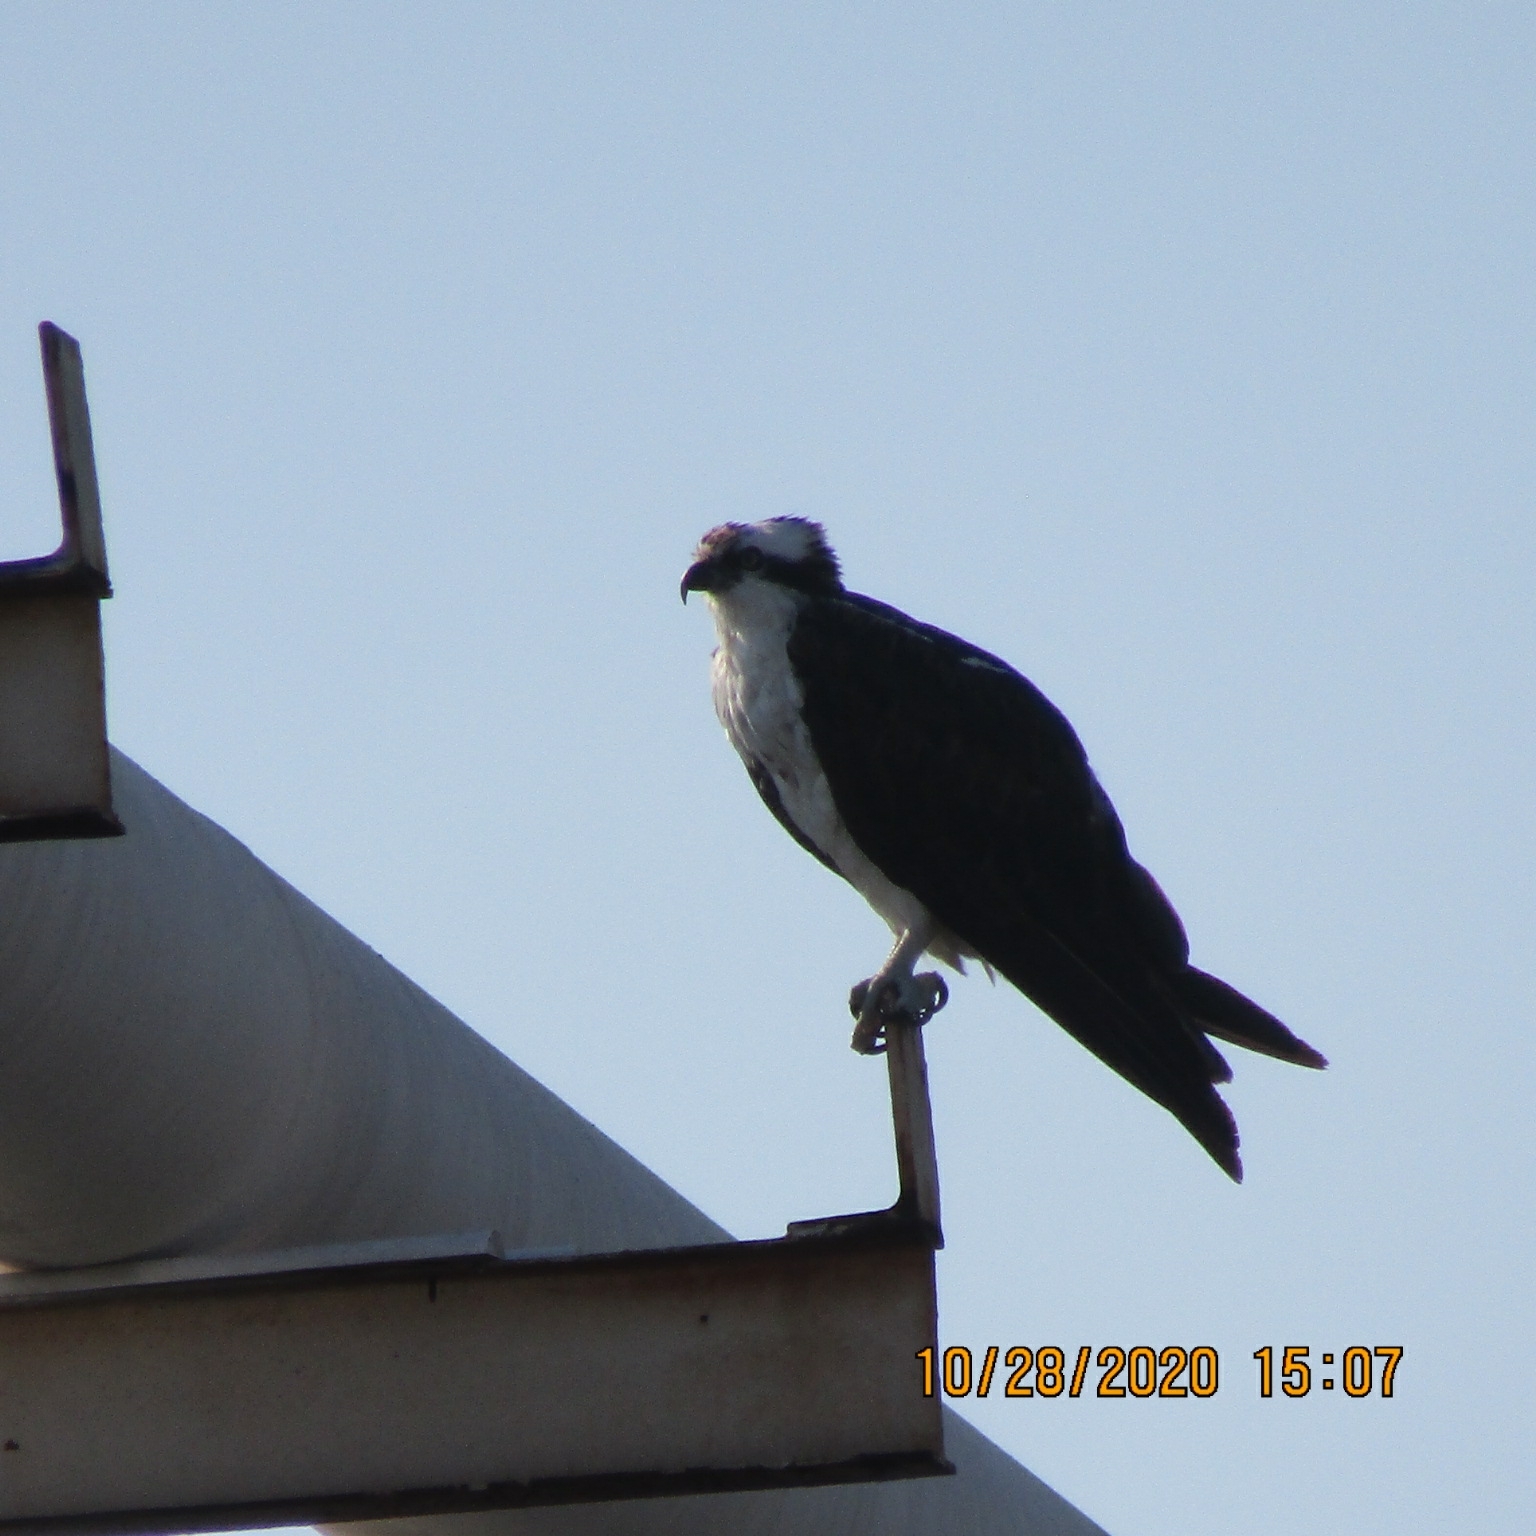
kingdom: Animalia
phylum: Chordata
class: Aves
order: Accipitriformes
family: Pandionidae
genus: Pandion
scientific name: Pandion haliaetus
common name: Osprey
